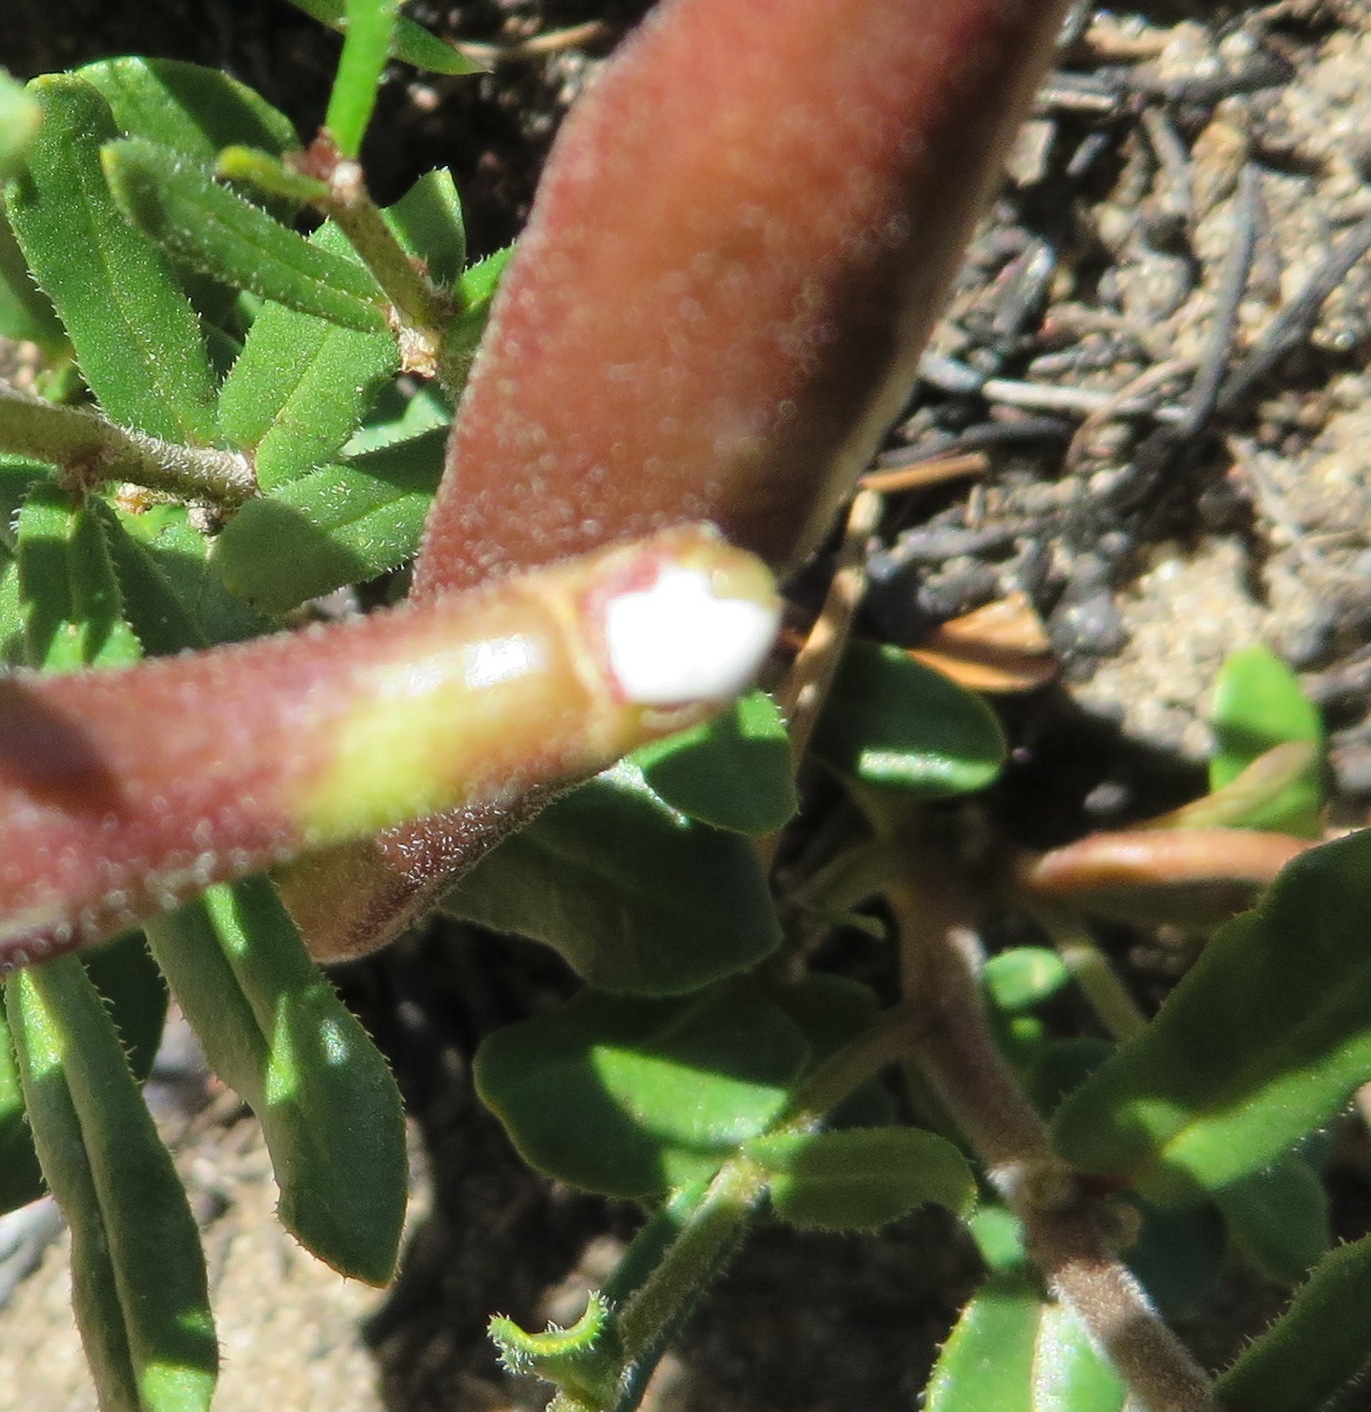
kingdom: Plantae
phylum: Tracheophyta
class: Magnoliopsida
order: Gentianales
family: Apocynaceae
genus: Schizoglossum
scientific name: Schizoglossum aschersonianum
